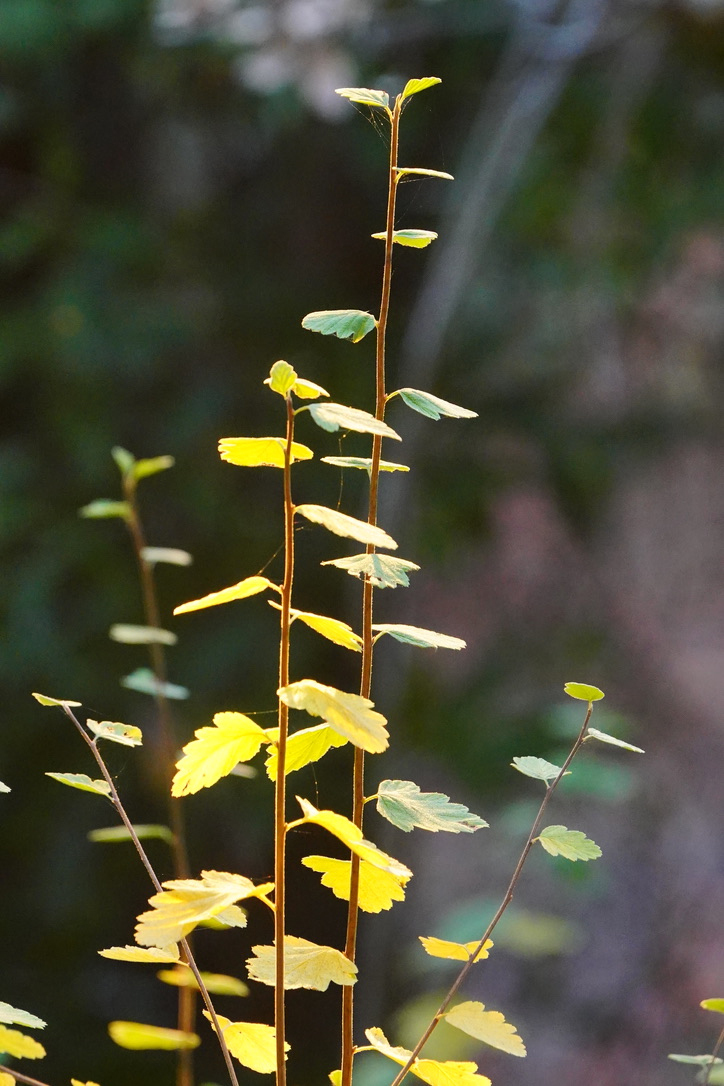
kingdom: Plantae
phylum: Tracheophyta
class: Magnoliopsida
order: Rosales
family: Rosaceae
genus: Holodiscus
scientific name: Holodiscus discolor
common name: Oceanspray
